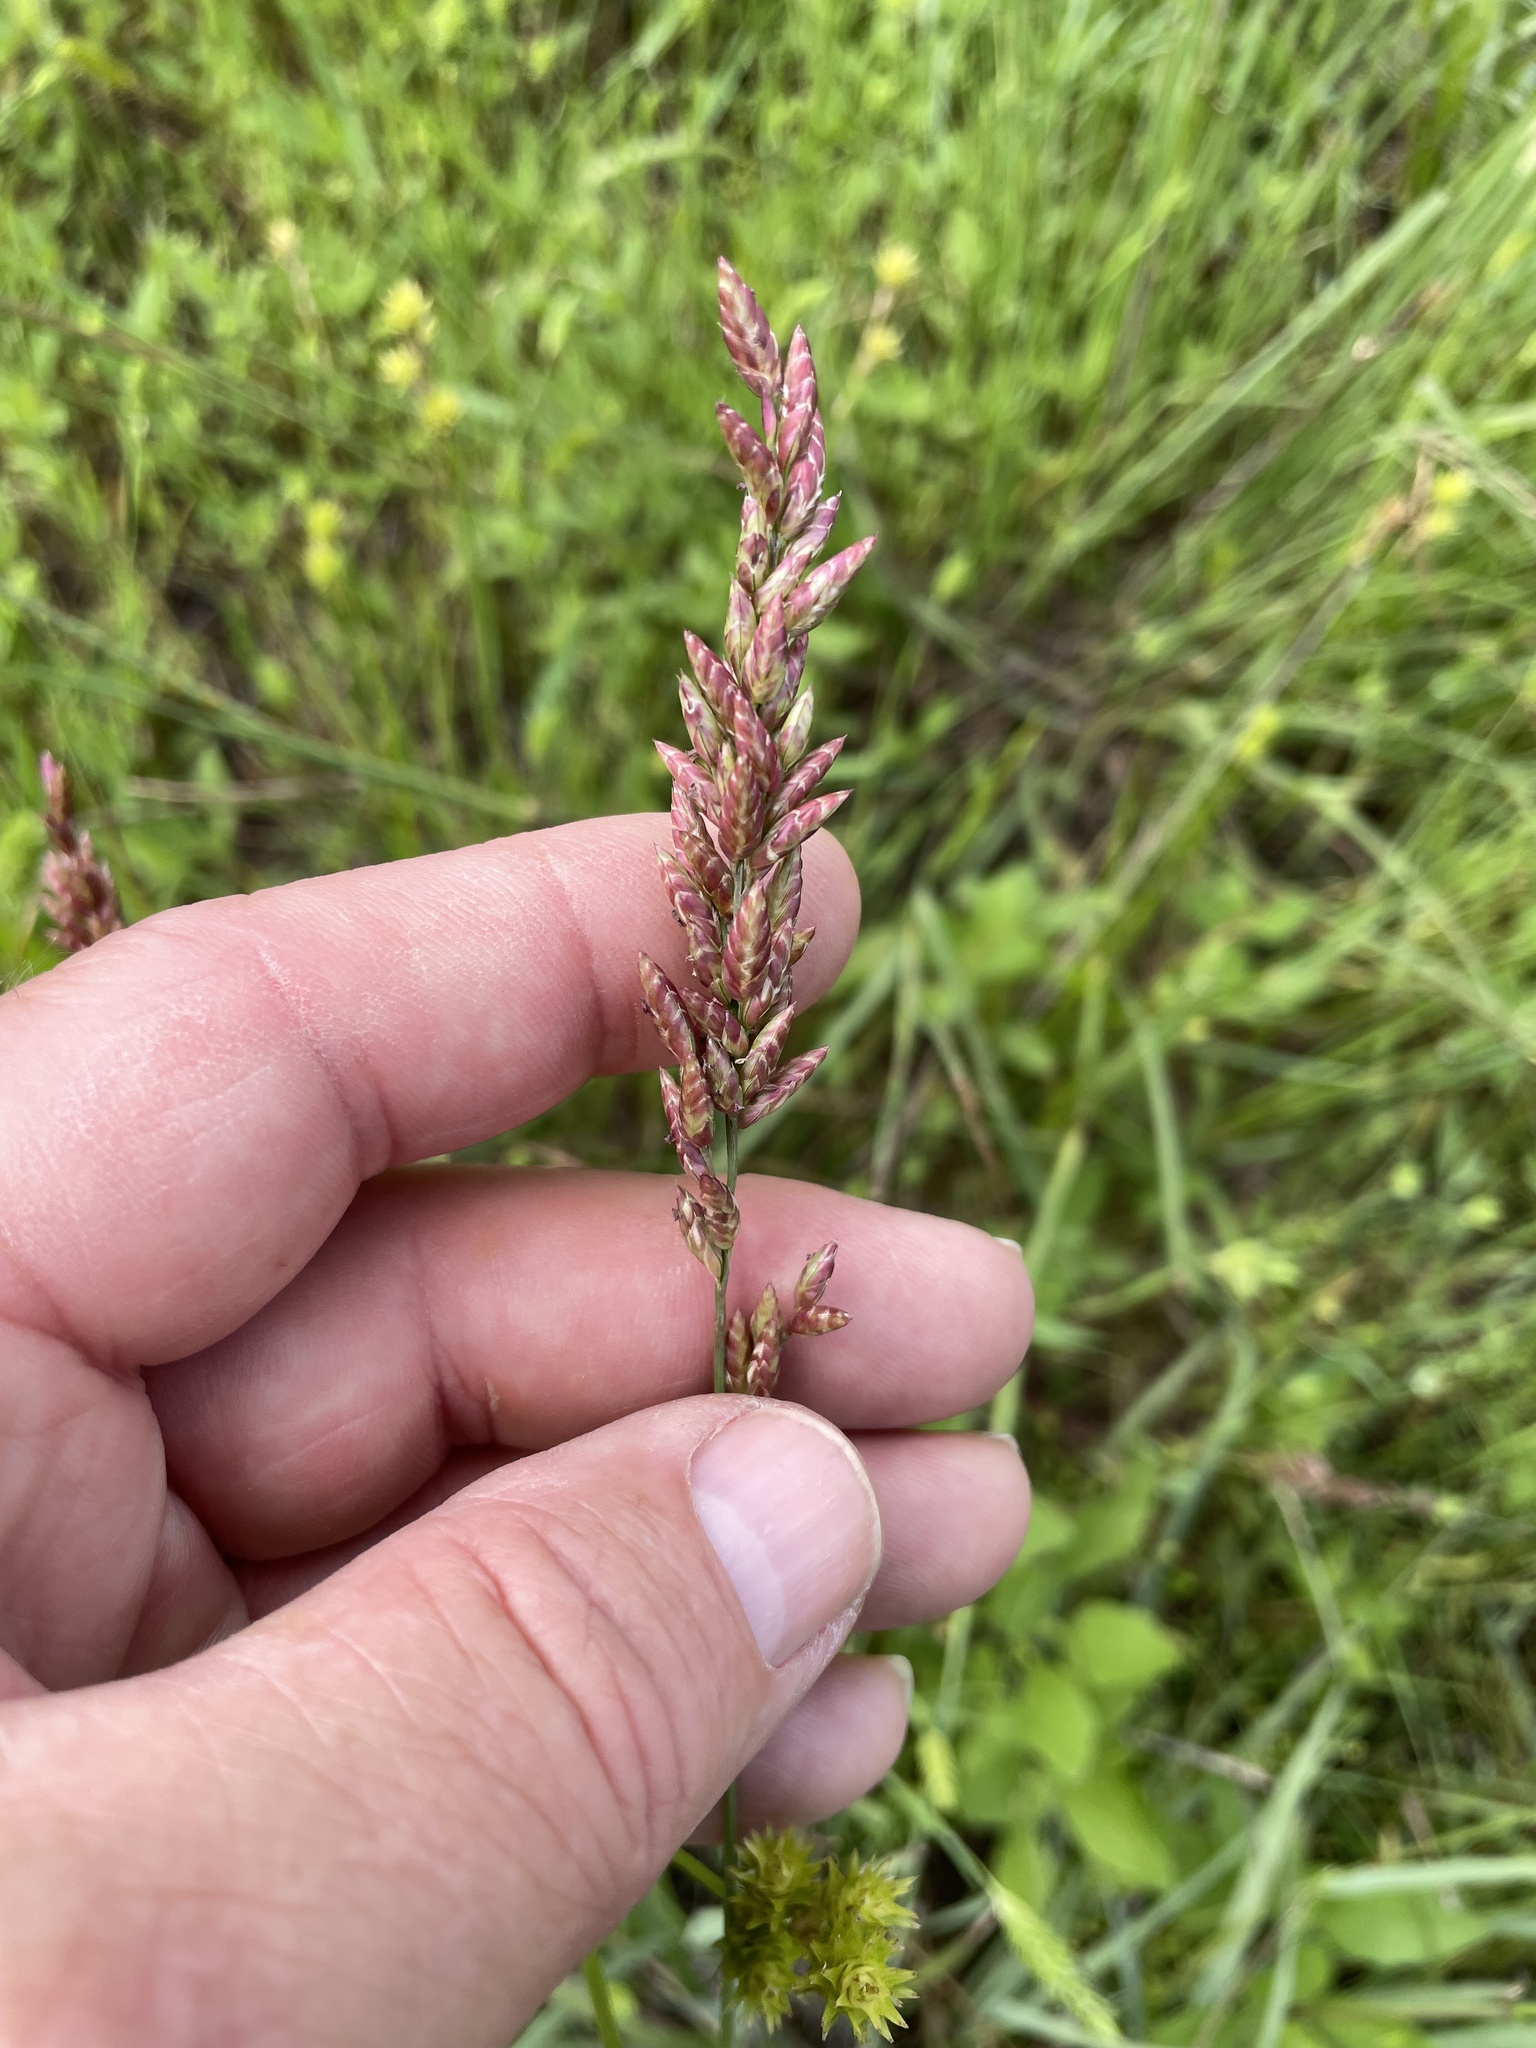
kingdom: Plantae
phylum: Tracheophyta
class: Liliopsida
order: Poales
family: Poaceae
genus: Tridens
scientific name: Tridens congestus
